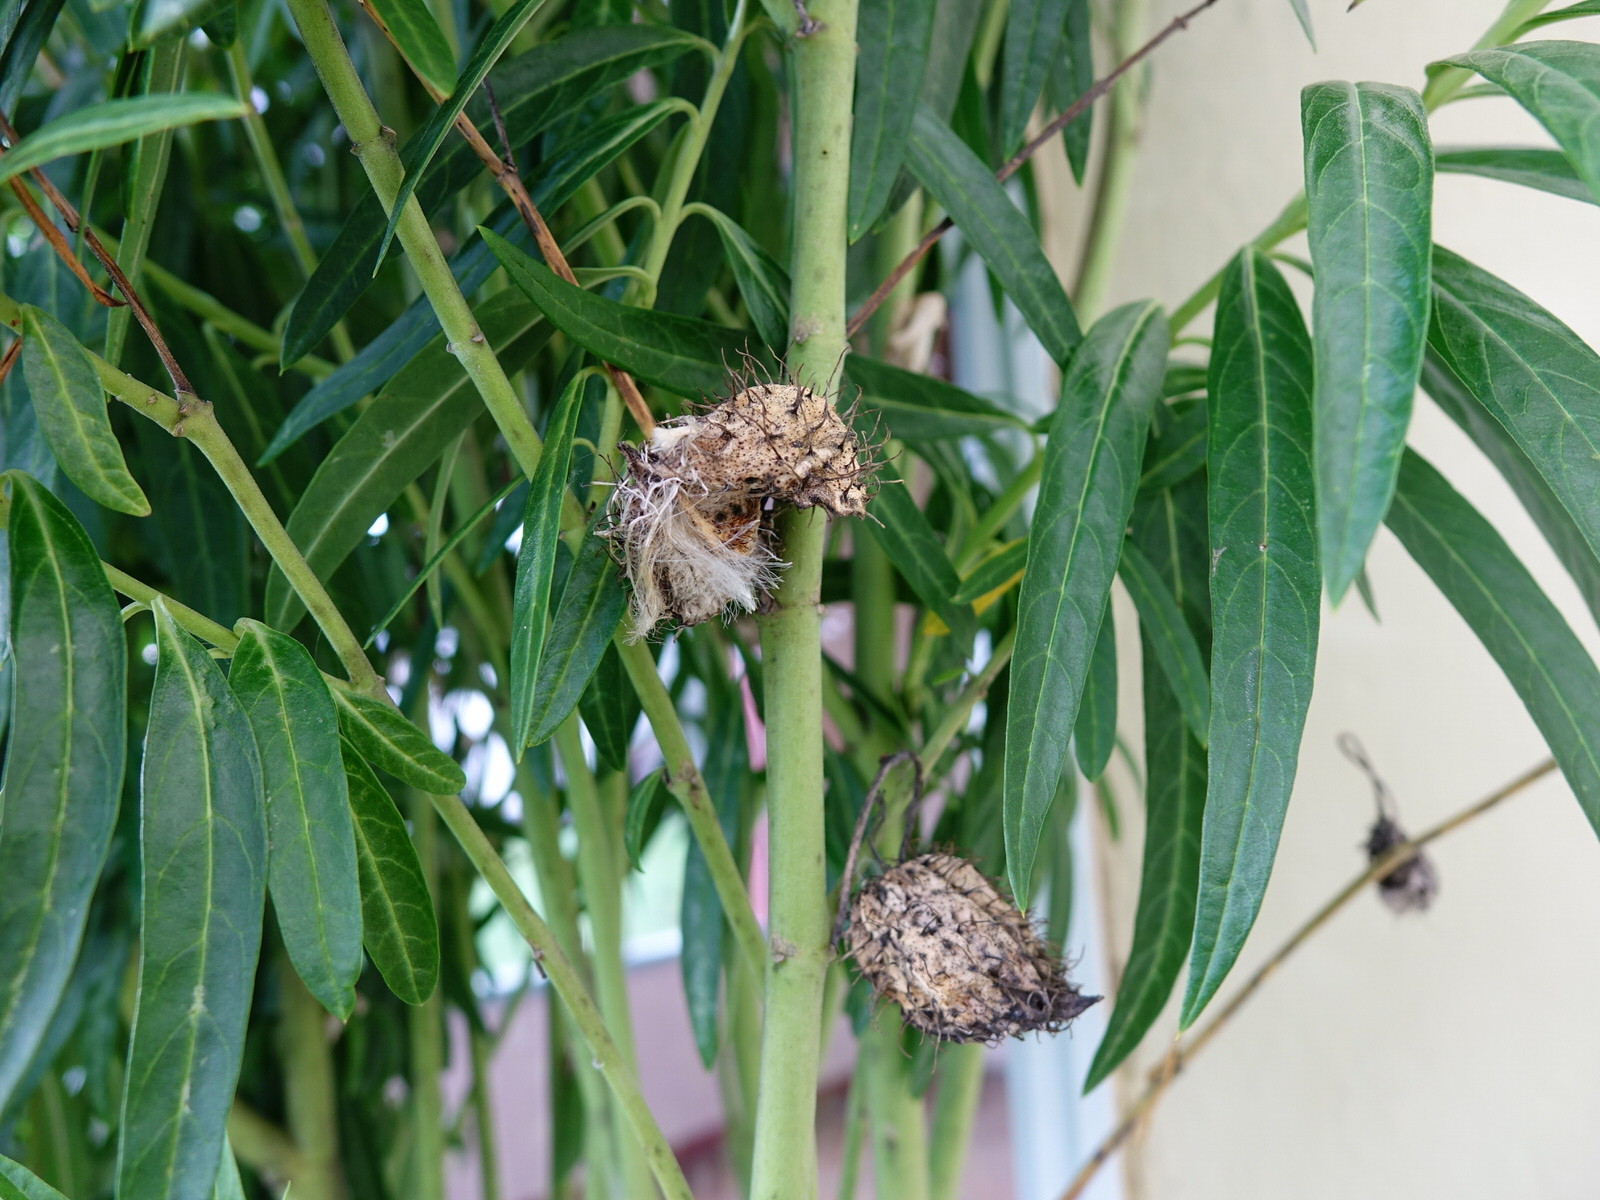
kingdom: Plantae
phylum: Tracheophyta
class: Magnoliopsida
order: Gentianales
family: Apocynaceae
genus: Gomphocarpus
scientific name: Gomphocarpus fruticosus
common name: Milkweed
